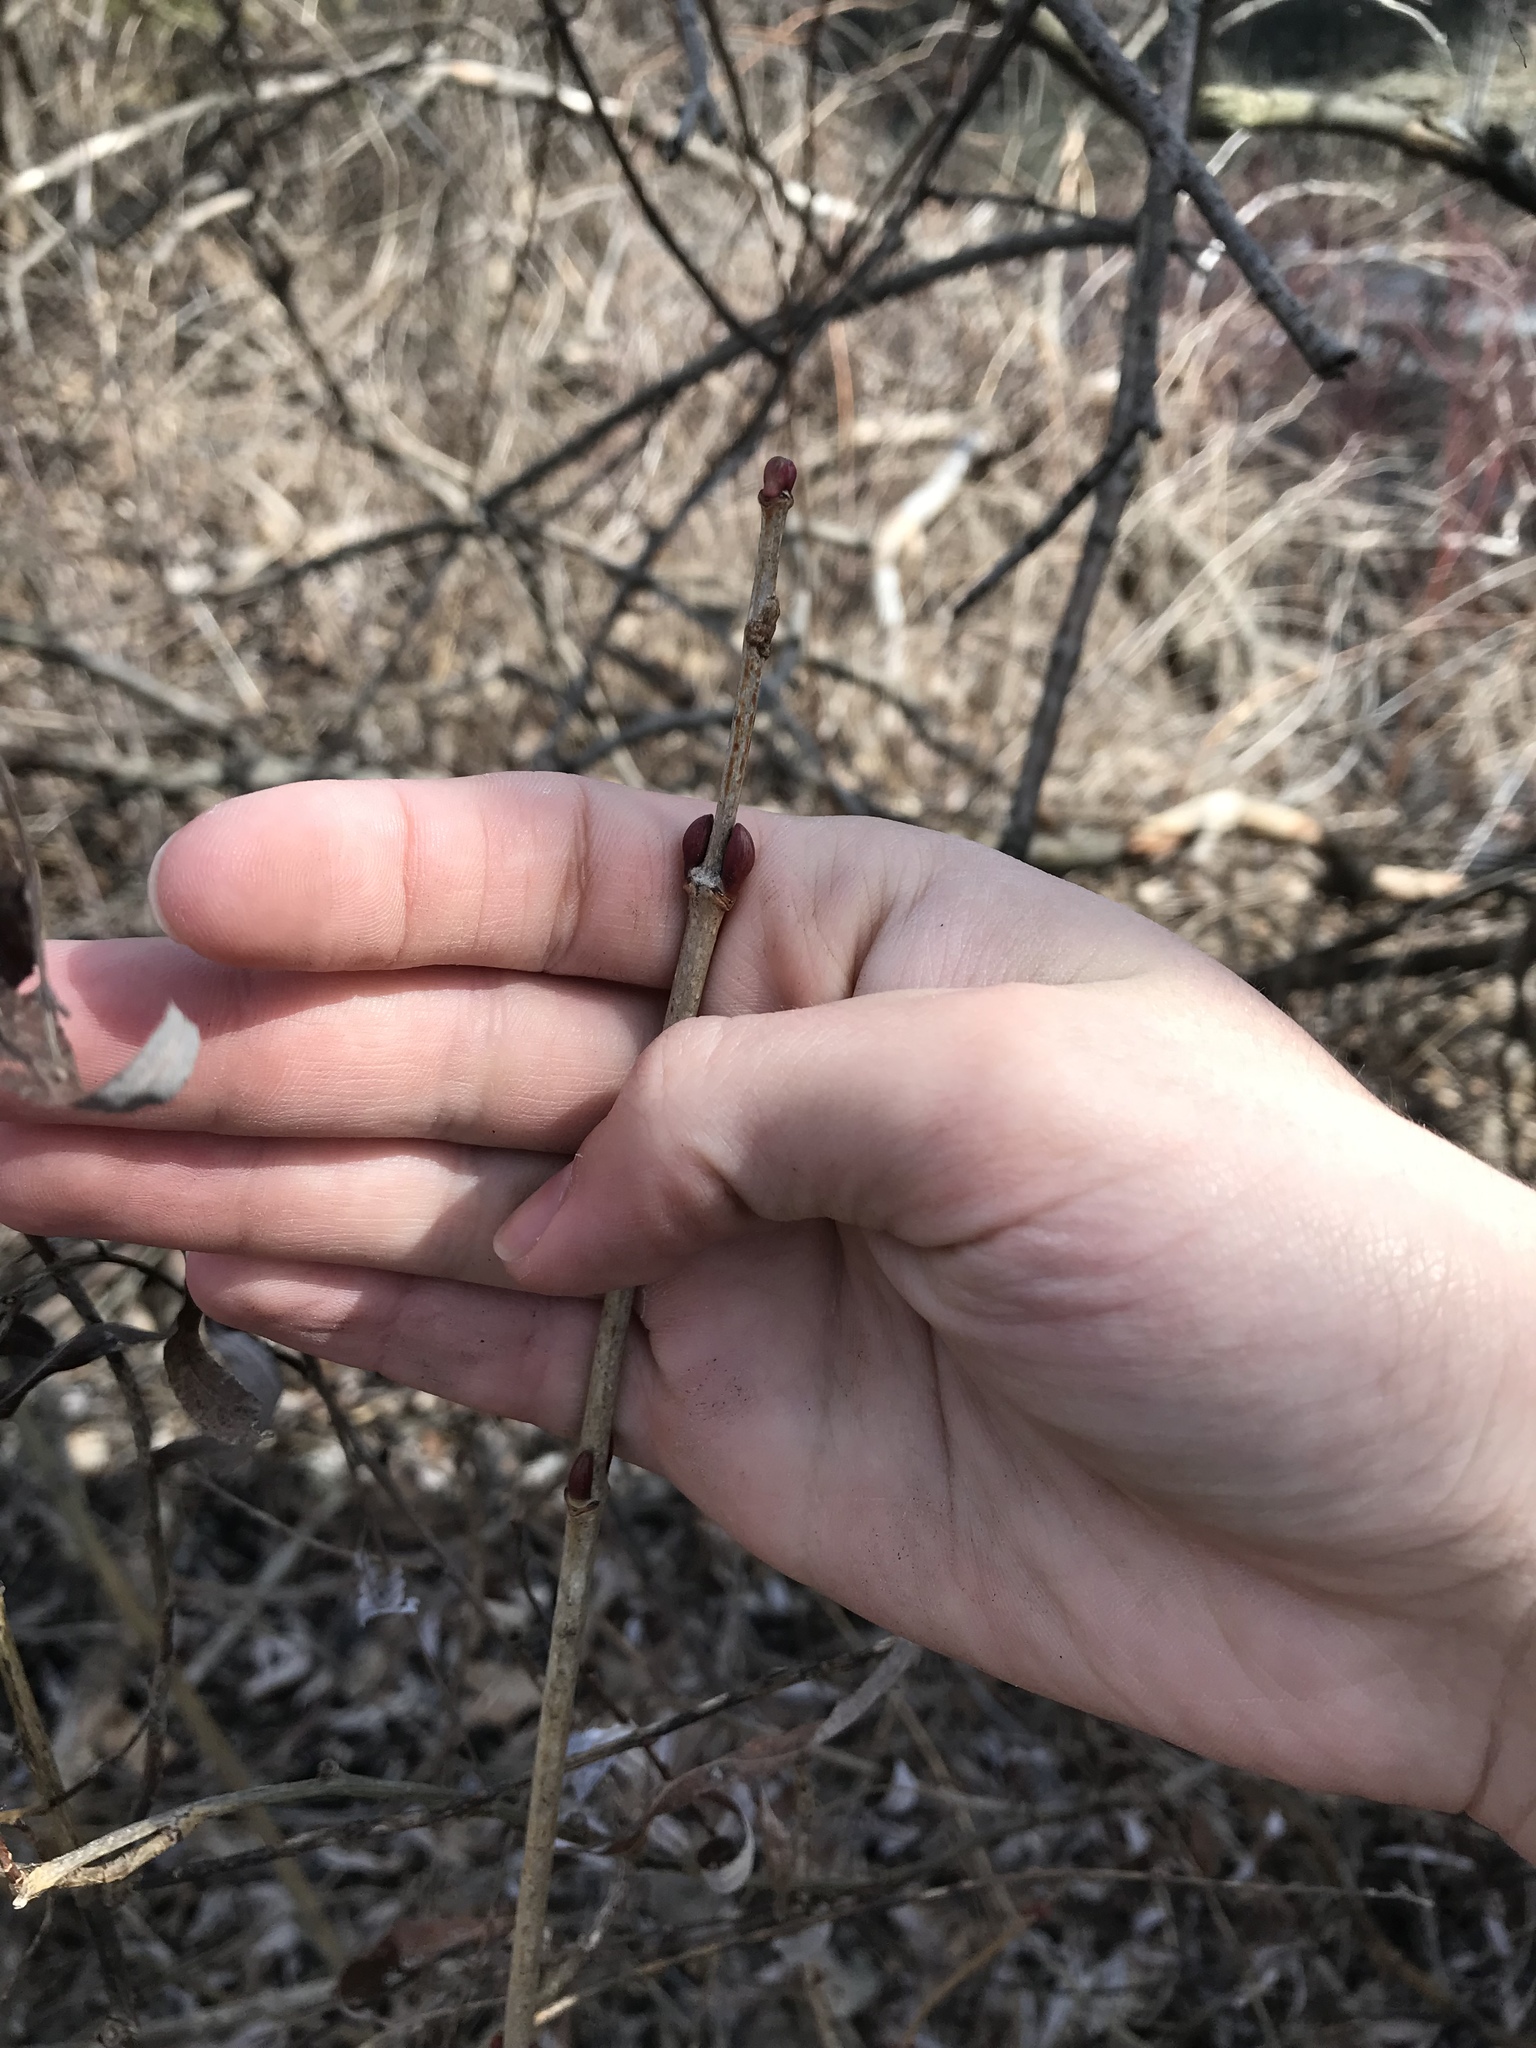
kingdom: Plantae
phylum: Tracheophyta
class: Magnoliopsida
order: Dipsacales
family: Viburnaceae
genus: Viburnum
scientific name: Viburnum opulus
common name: Guelder-rose
